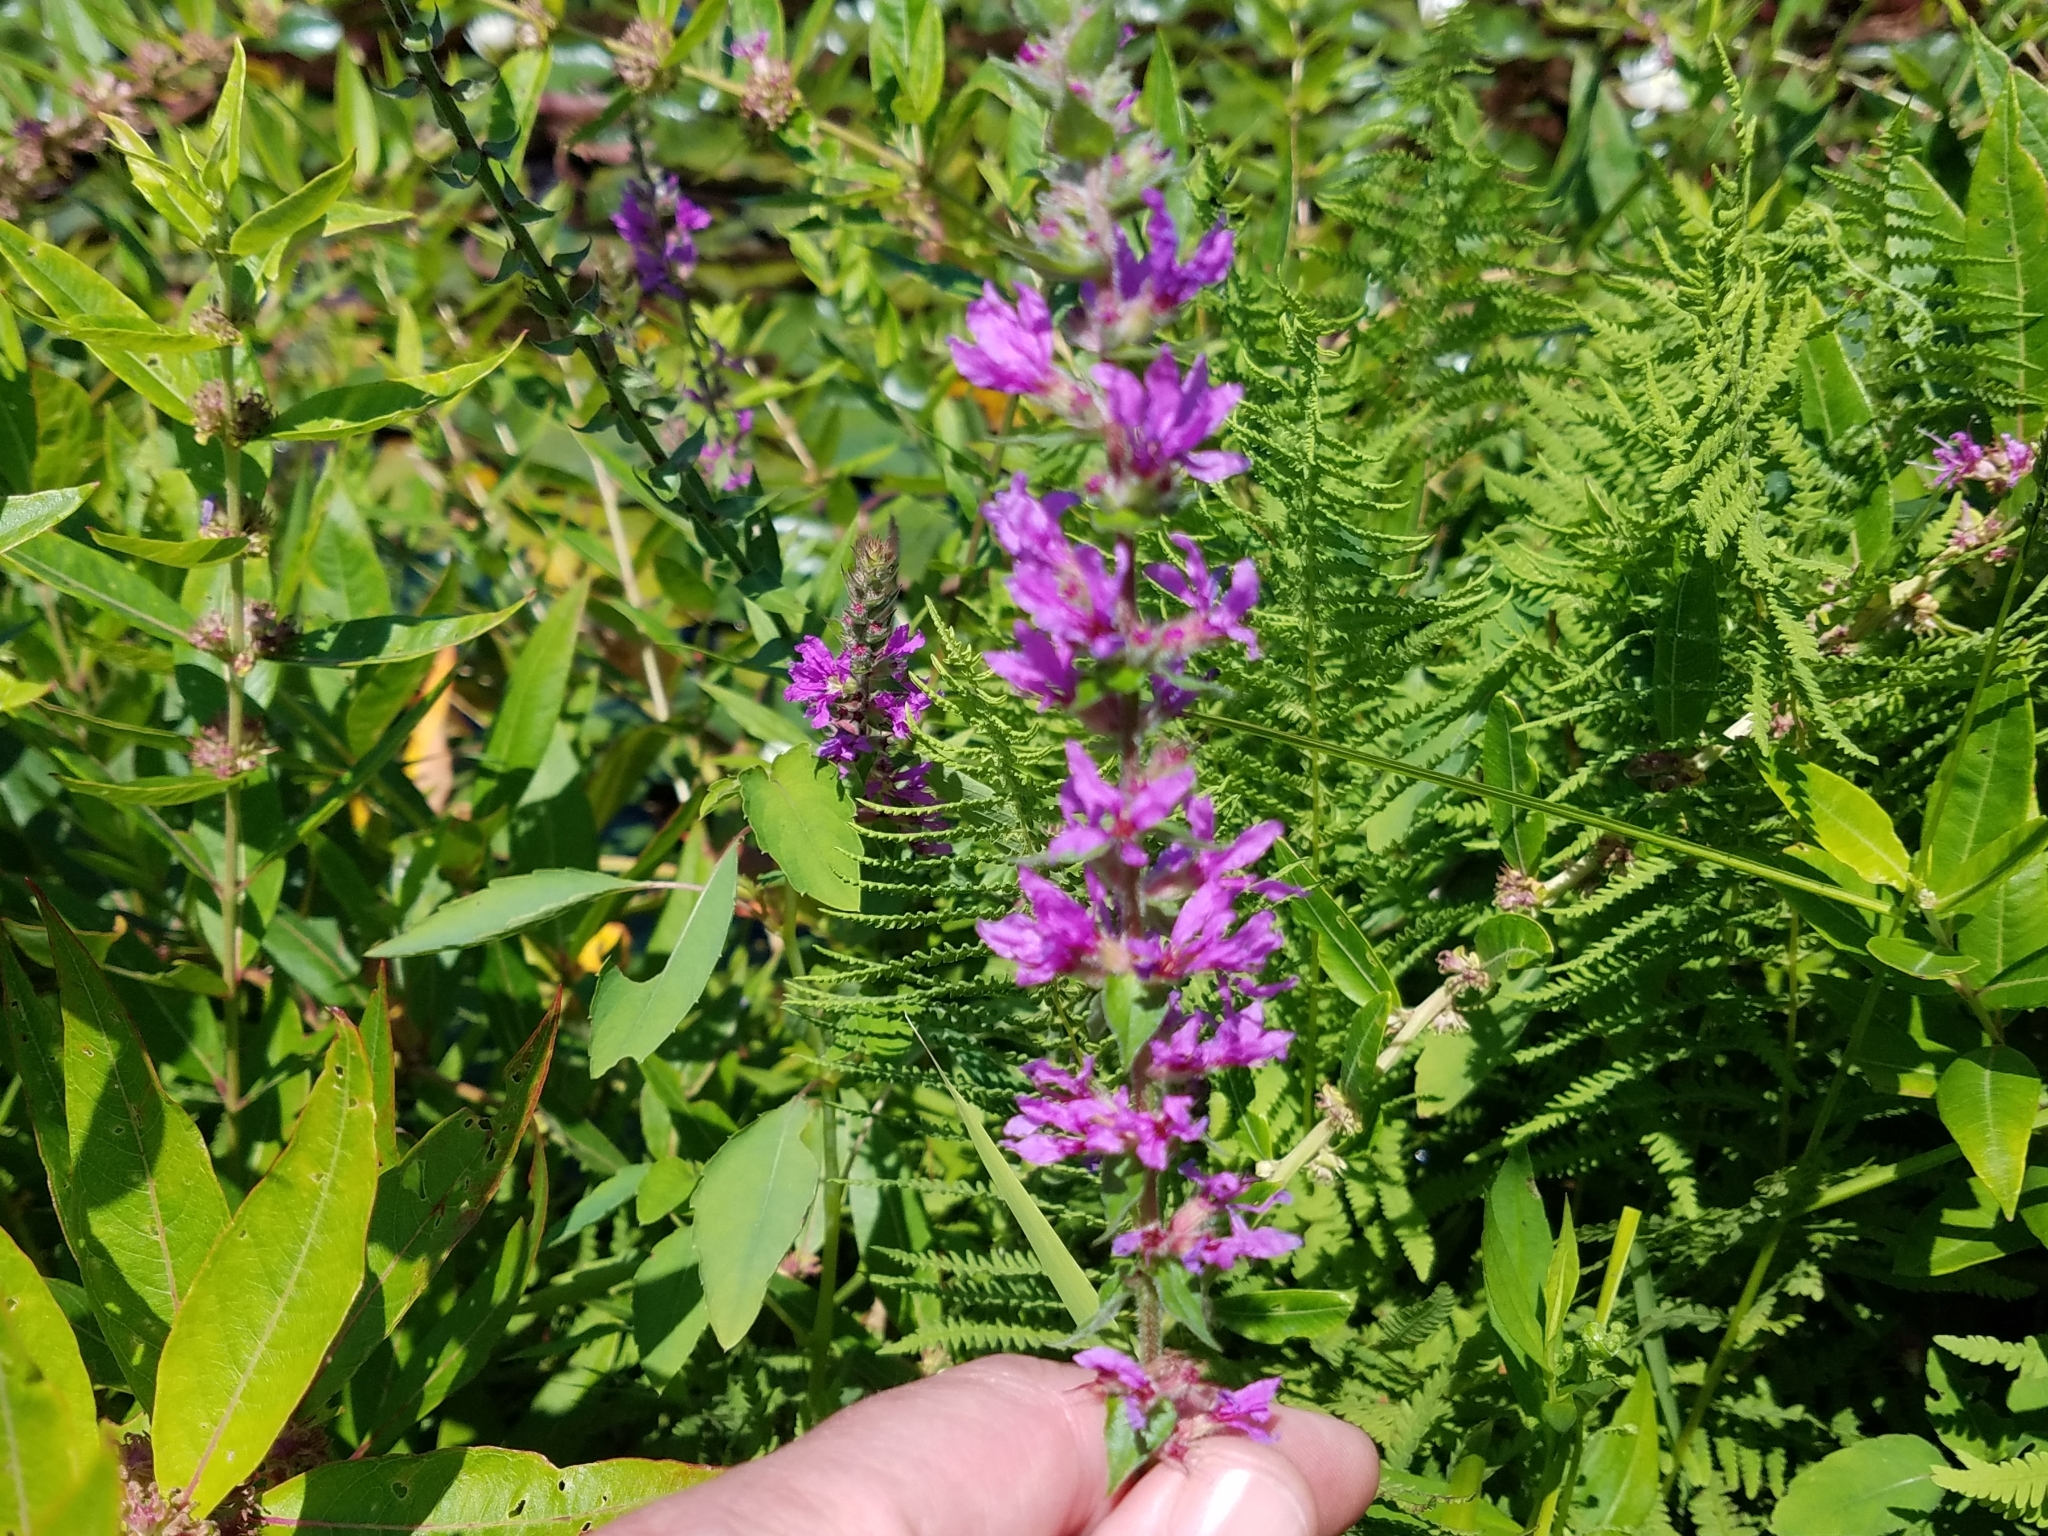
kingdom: Plantae
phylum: Tracheophyta
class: Magnoliopsida
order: Myrtales
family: Lythraceae
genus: Lythrum
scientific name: Lythrum salicaria
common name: Purple loosestrife
